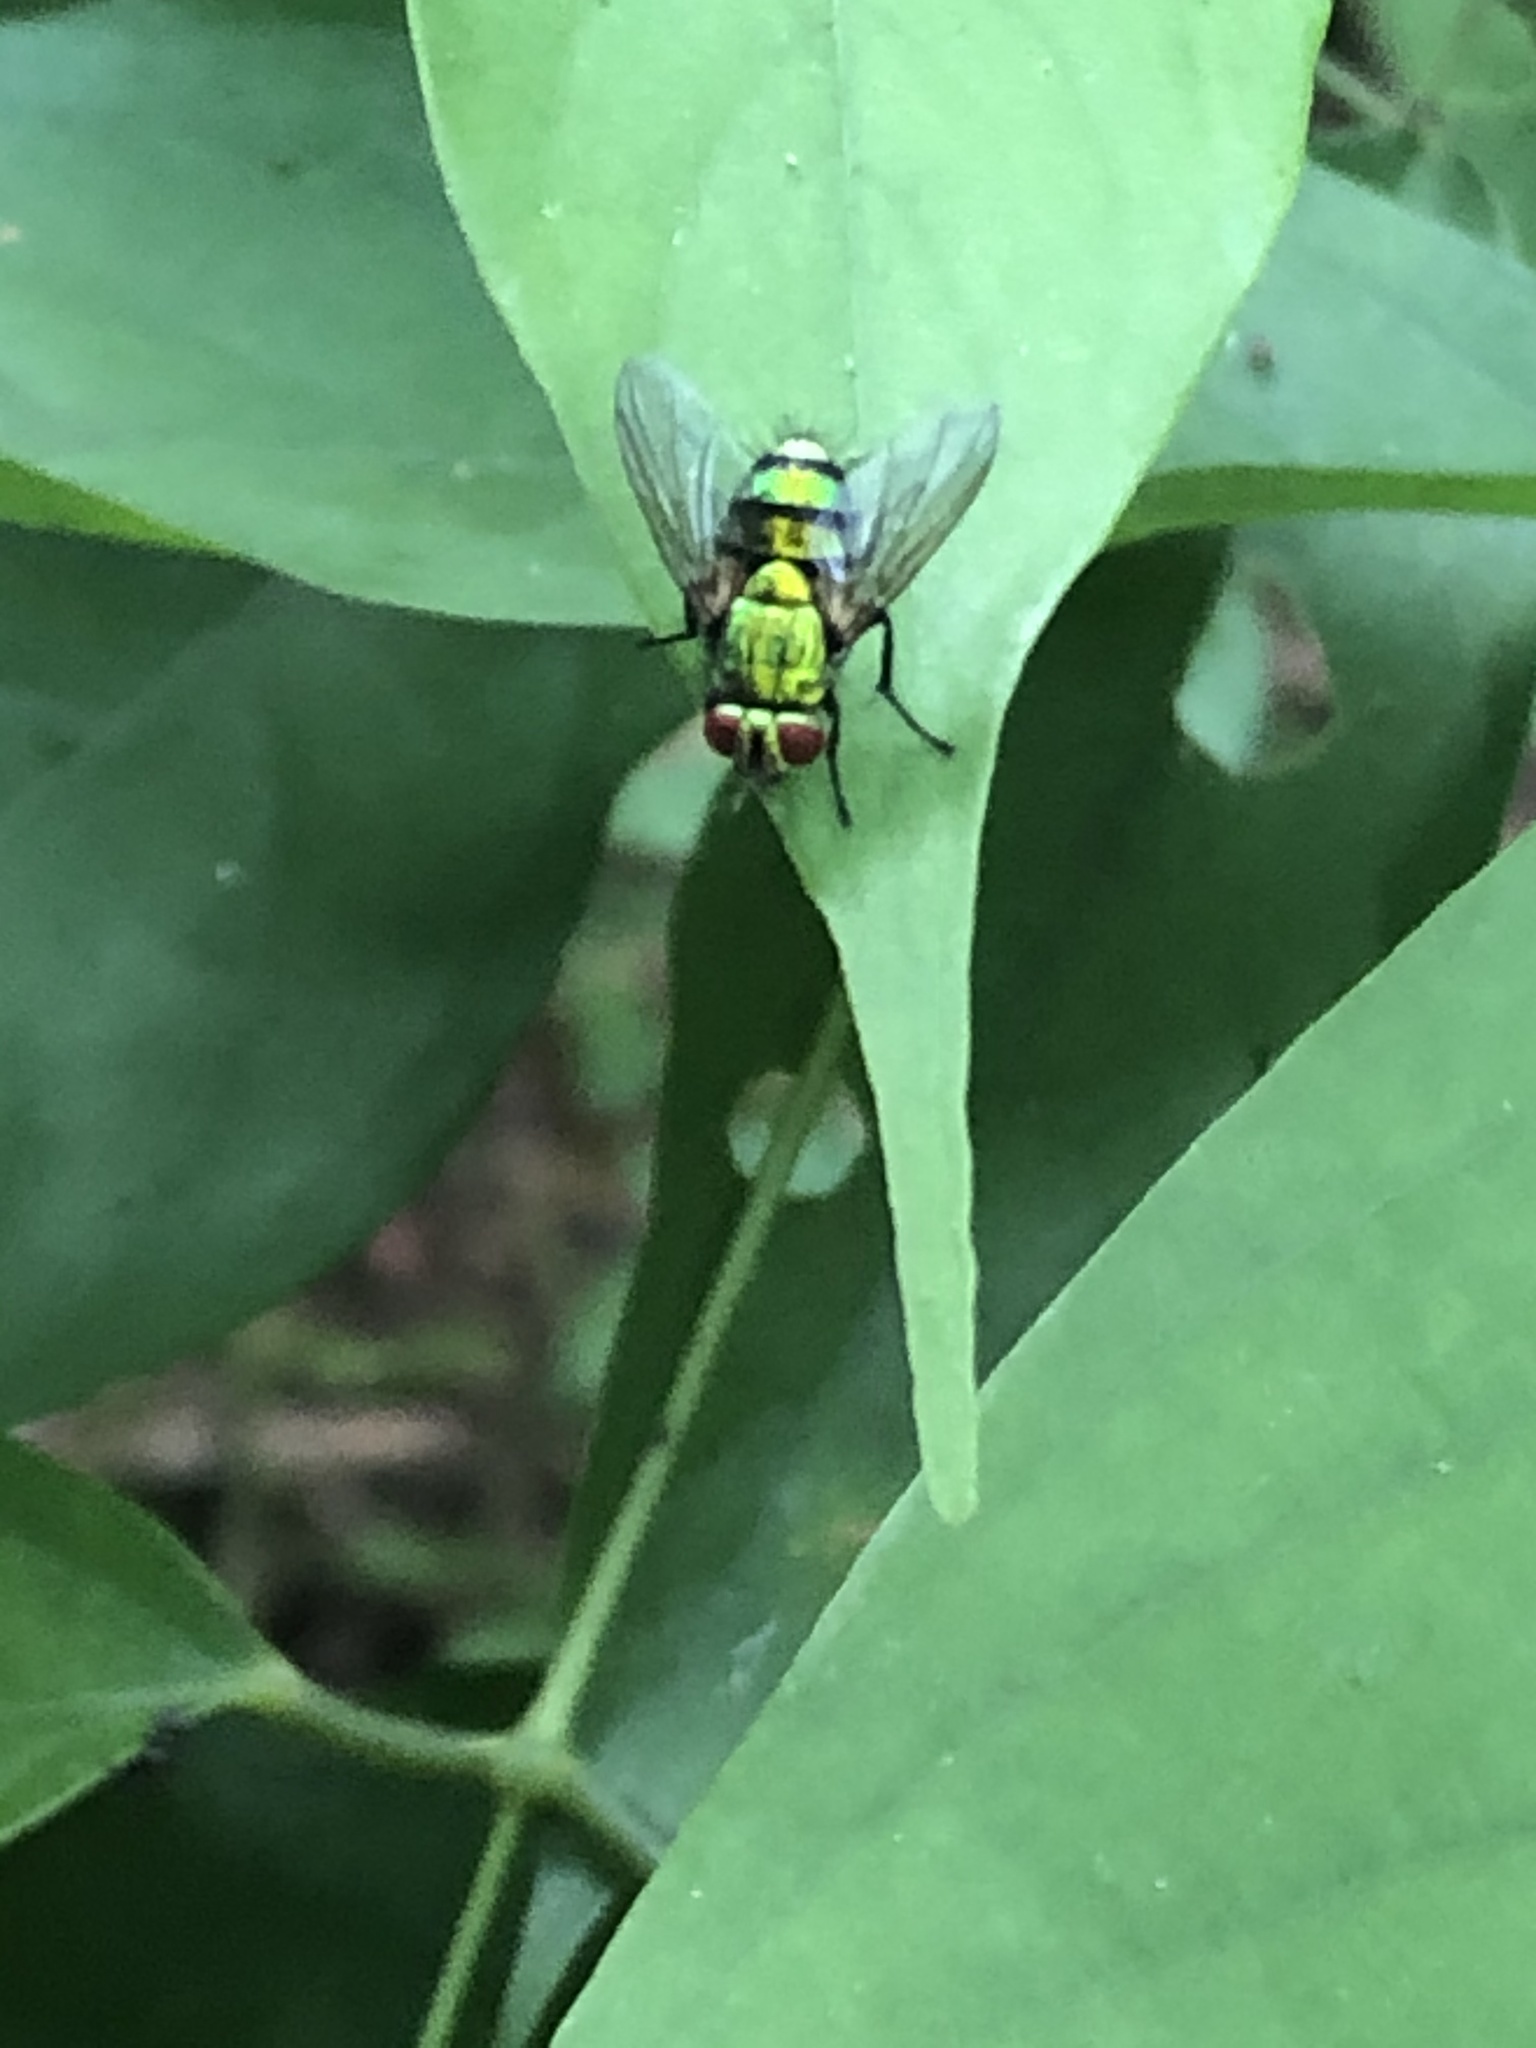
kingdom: Animalia
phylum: Arthropoda
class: Insecta
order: Diptera
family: Tachinidae
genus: Chrysoexorista
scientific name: Chrysoexorista viridis
